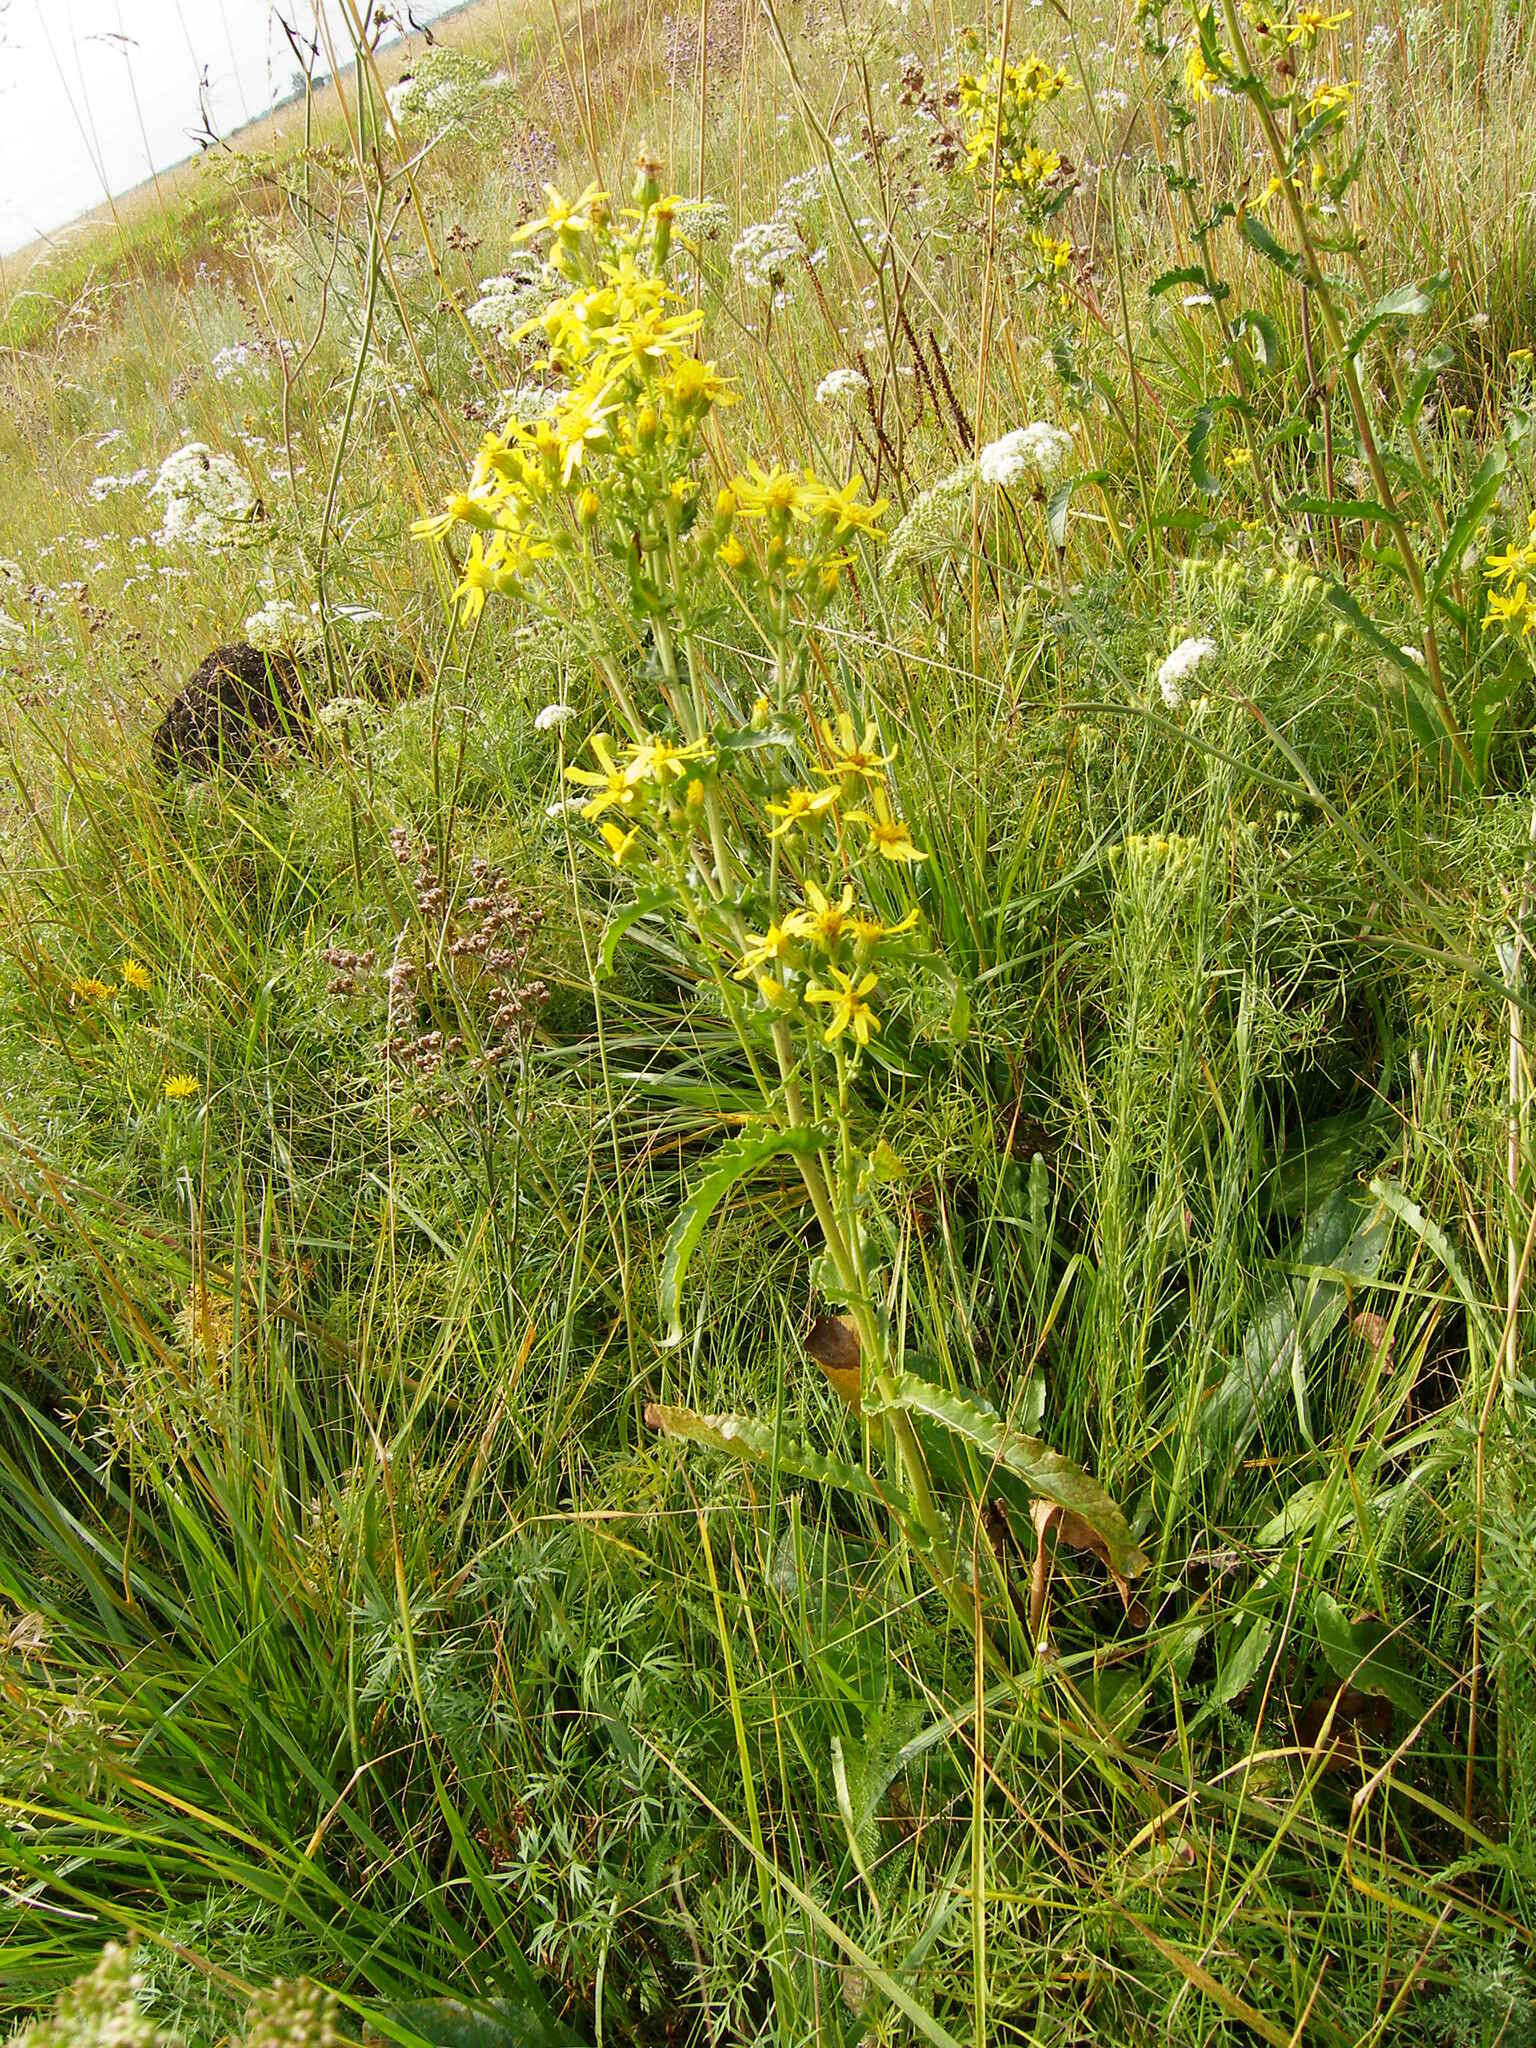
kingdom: Plantae
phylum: Tracheophyta
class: Magnoliopsida
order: Asterales
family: Asteraceae
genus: Jacobaea
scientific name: Jacobaea racemosa
